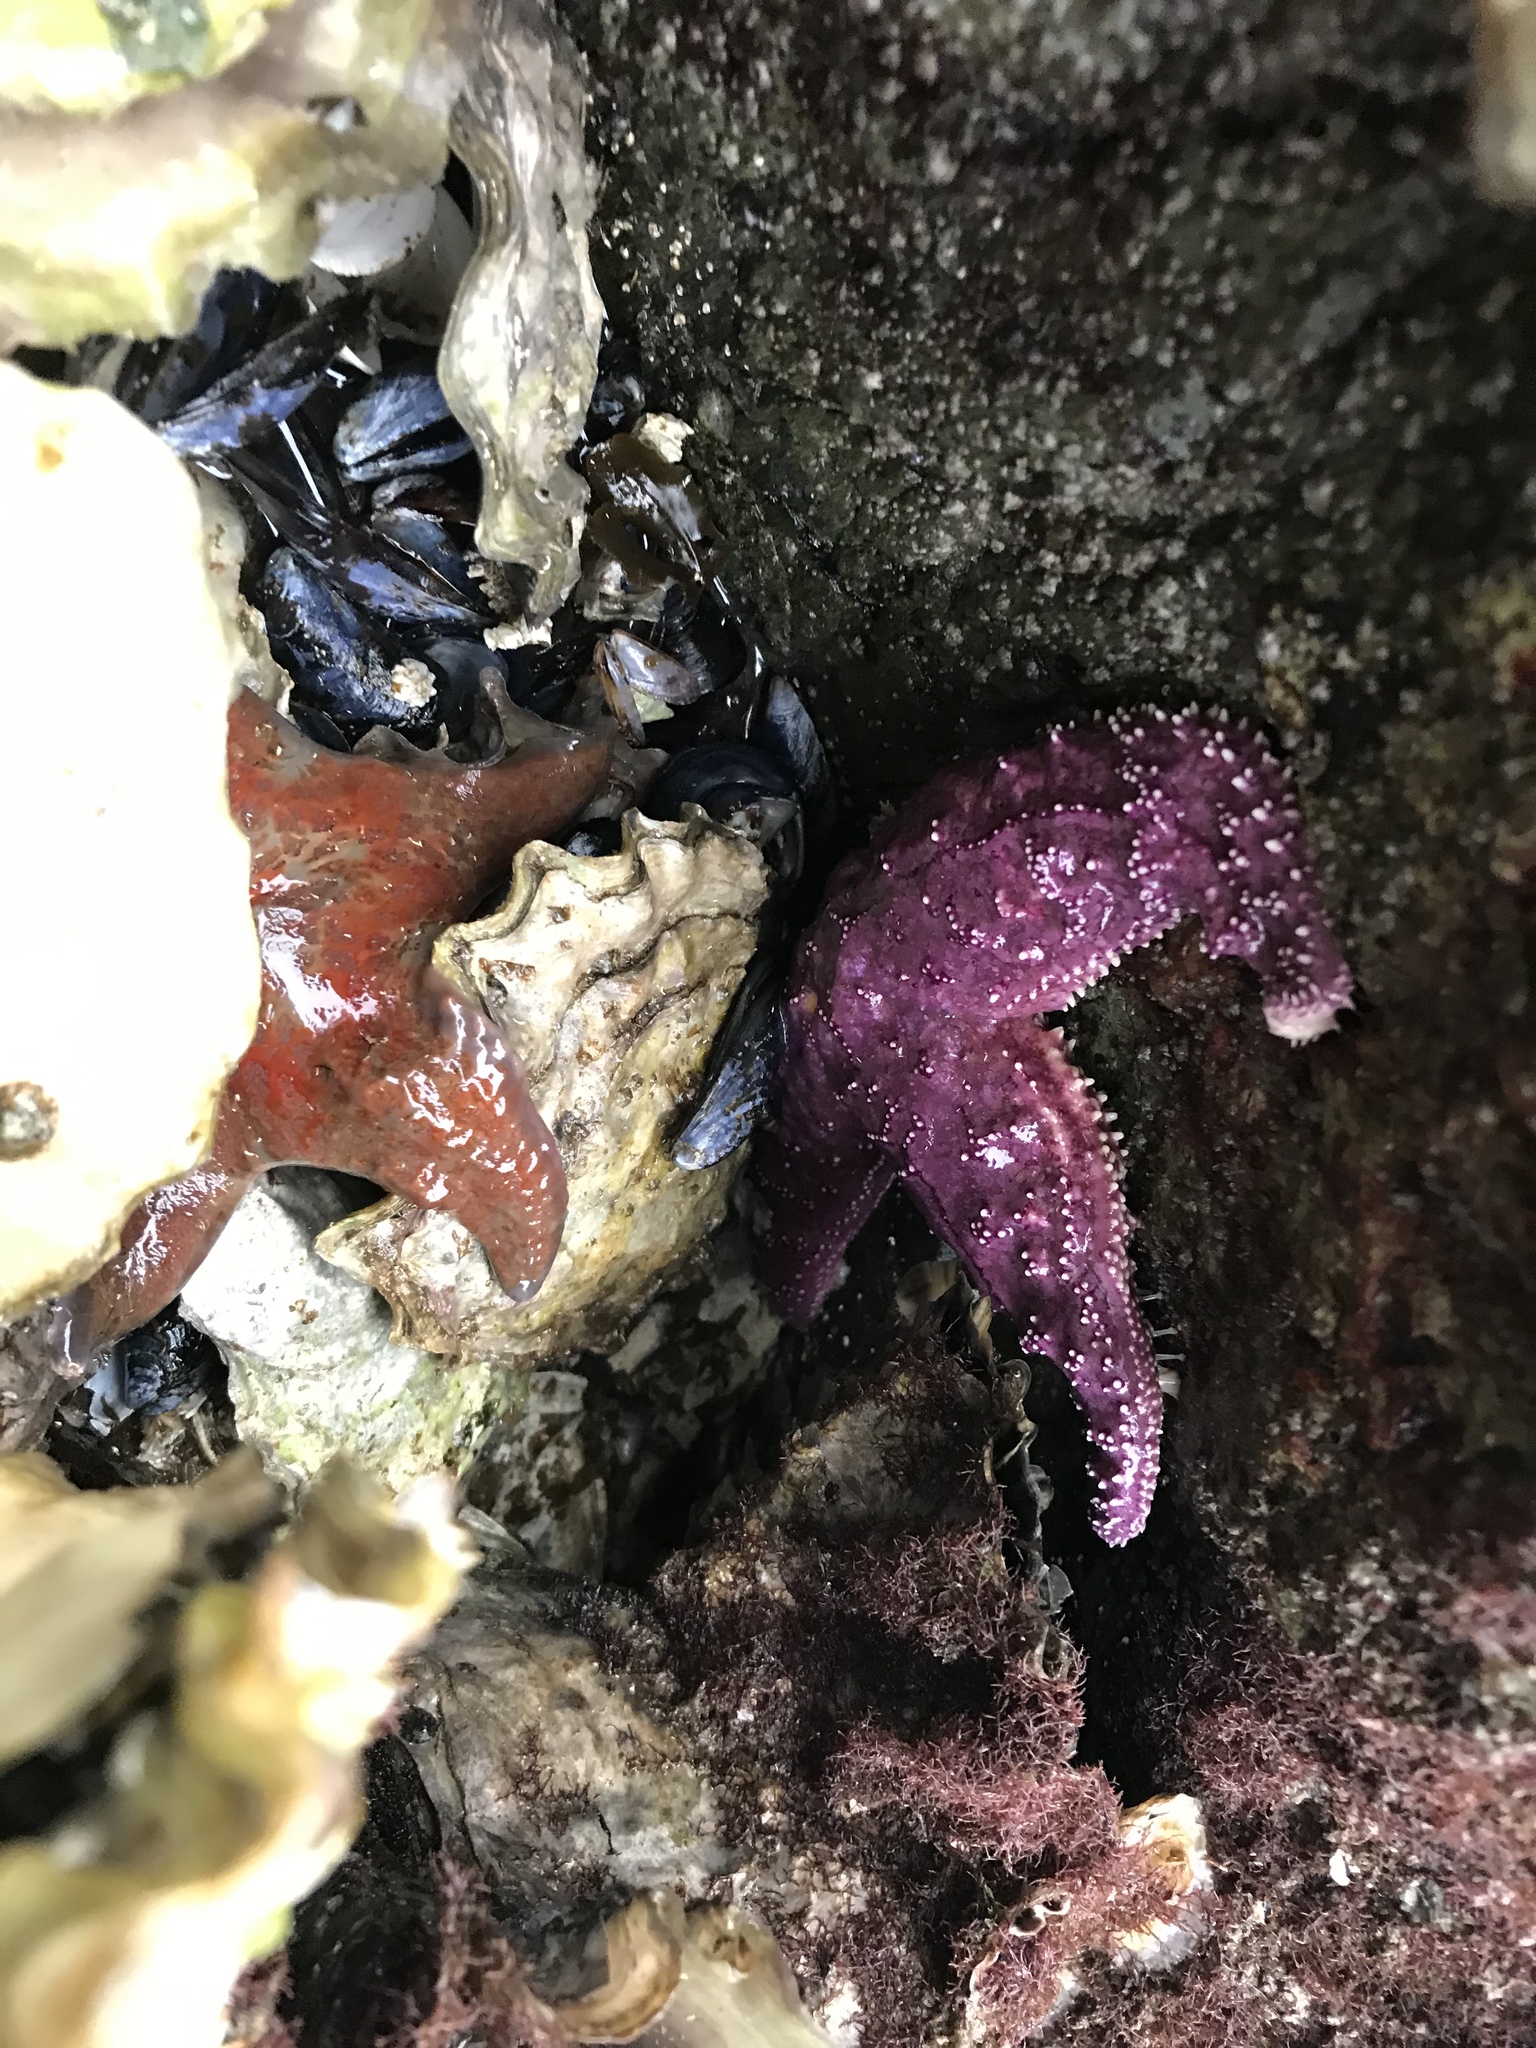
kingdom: Animalia
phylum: Echinodermata
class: Asteroidea
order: Forcipulatida
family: Asteriidae
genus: Pisaster
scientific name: Pisaster ochraceus
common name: Ochre stars
